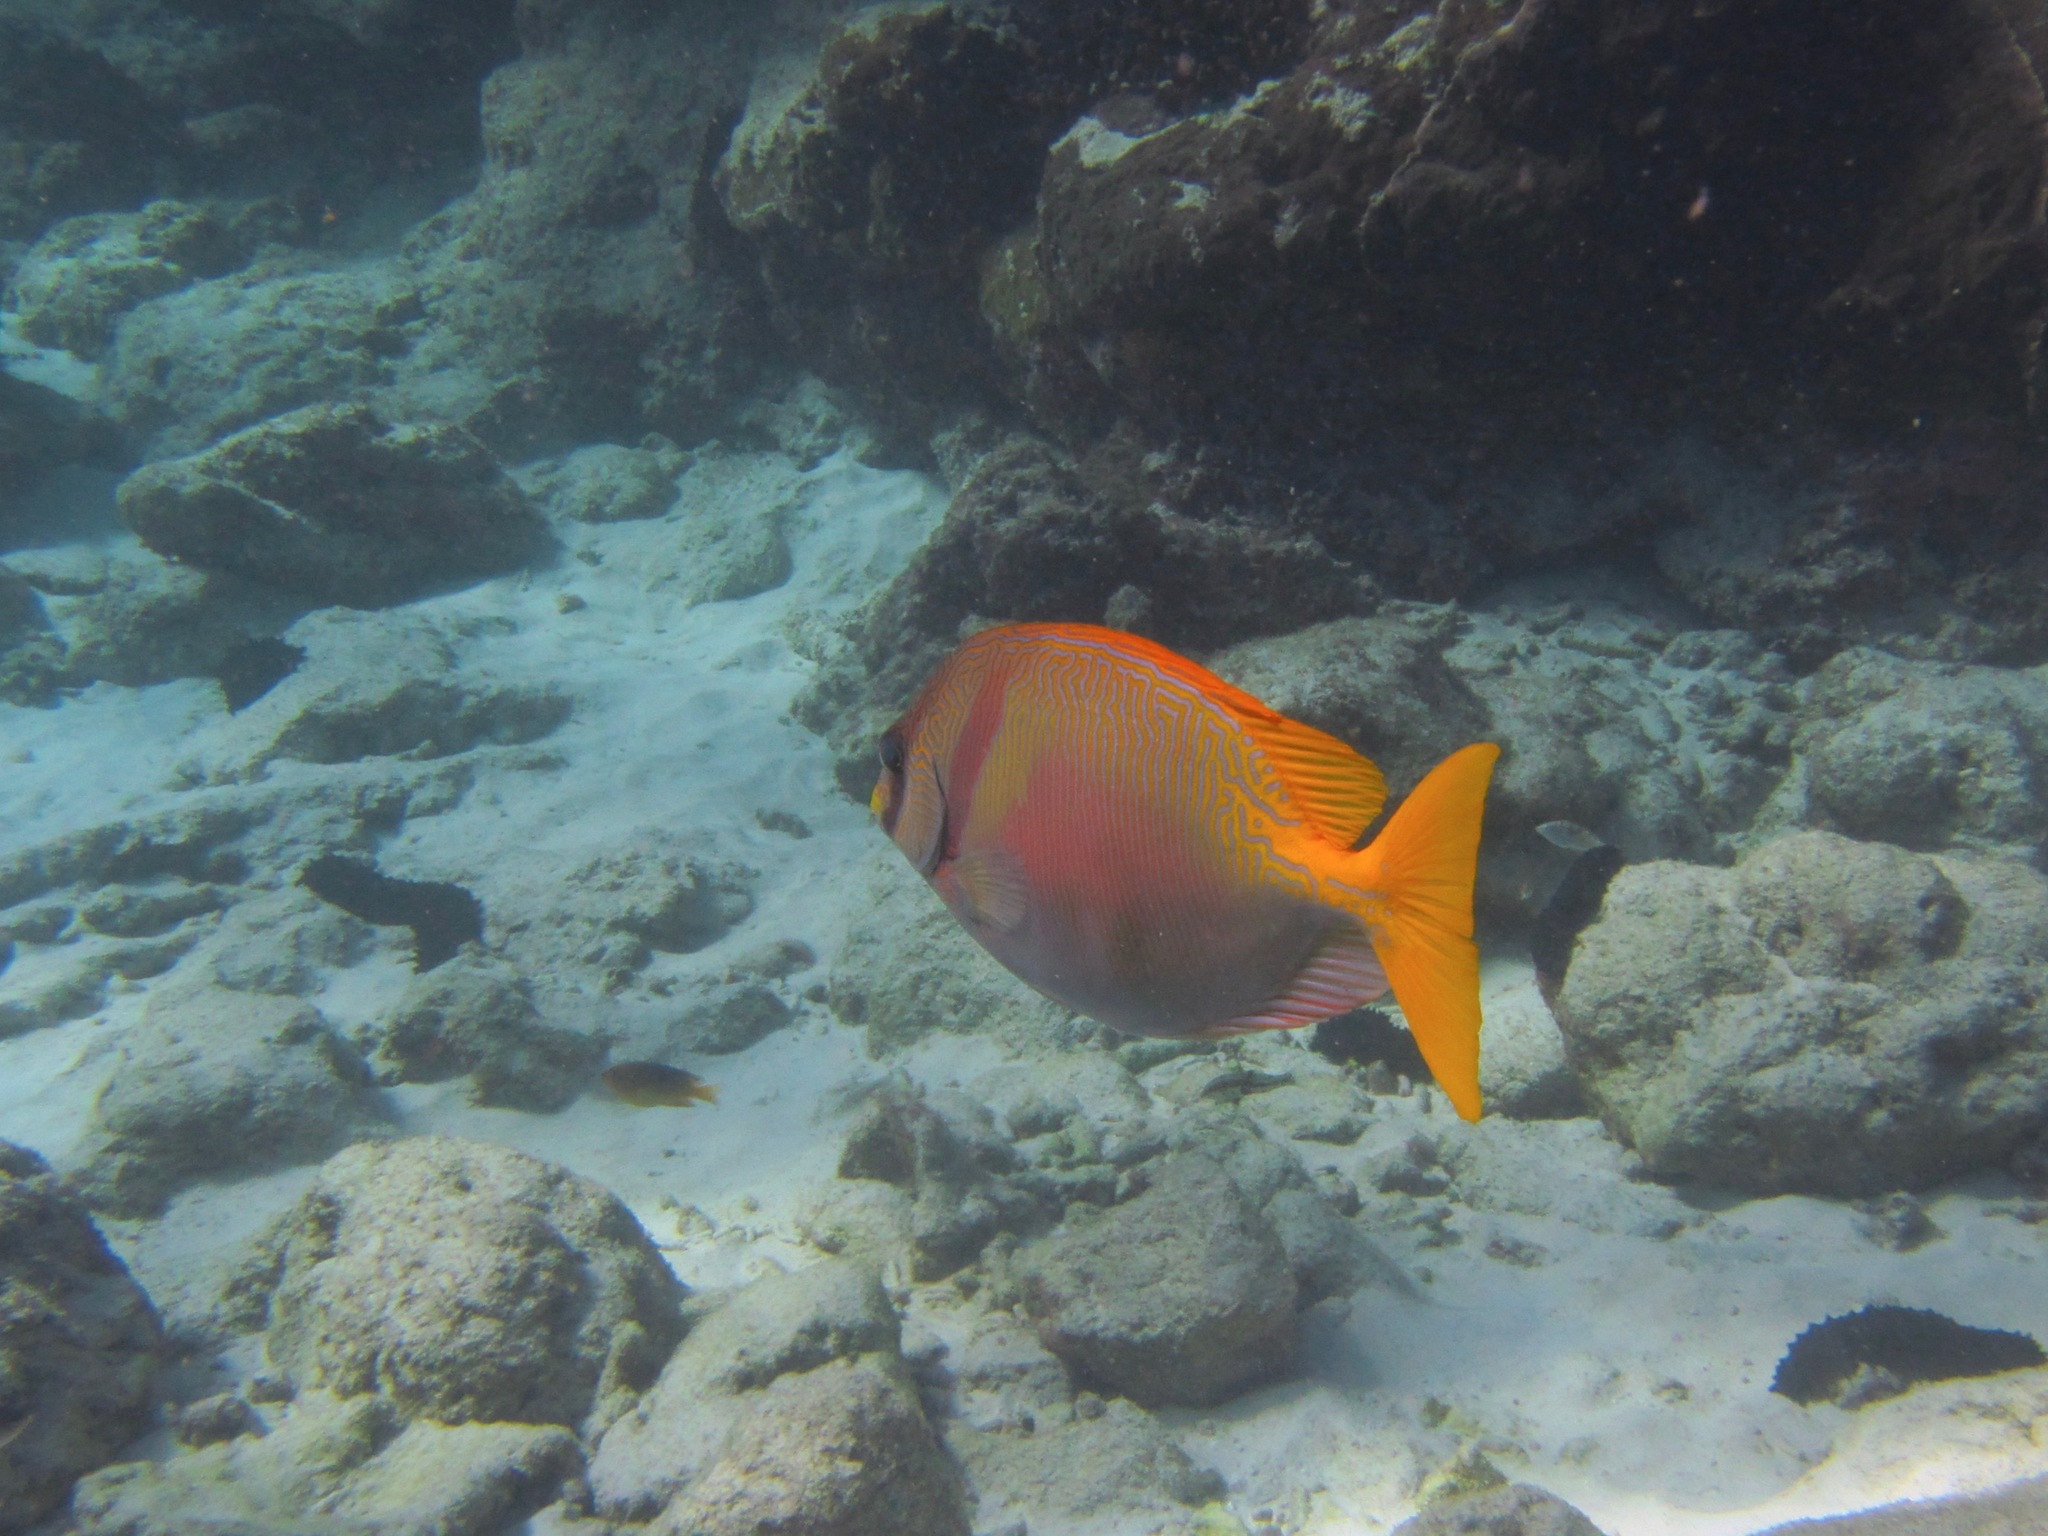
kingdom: Animalia
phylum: Chordata
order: Perciformes
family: Siganidae
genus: Siganus
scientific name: Siganus doliatus
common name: Barred spinefoot
